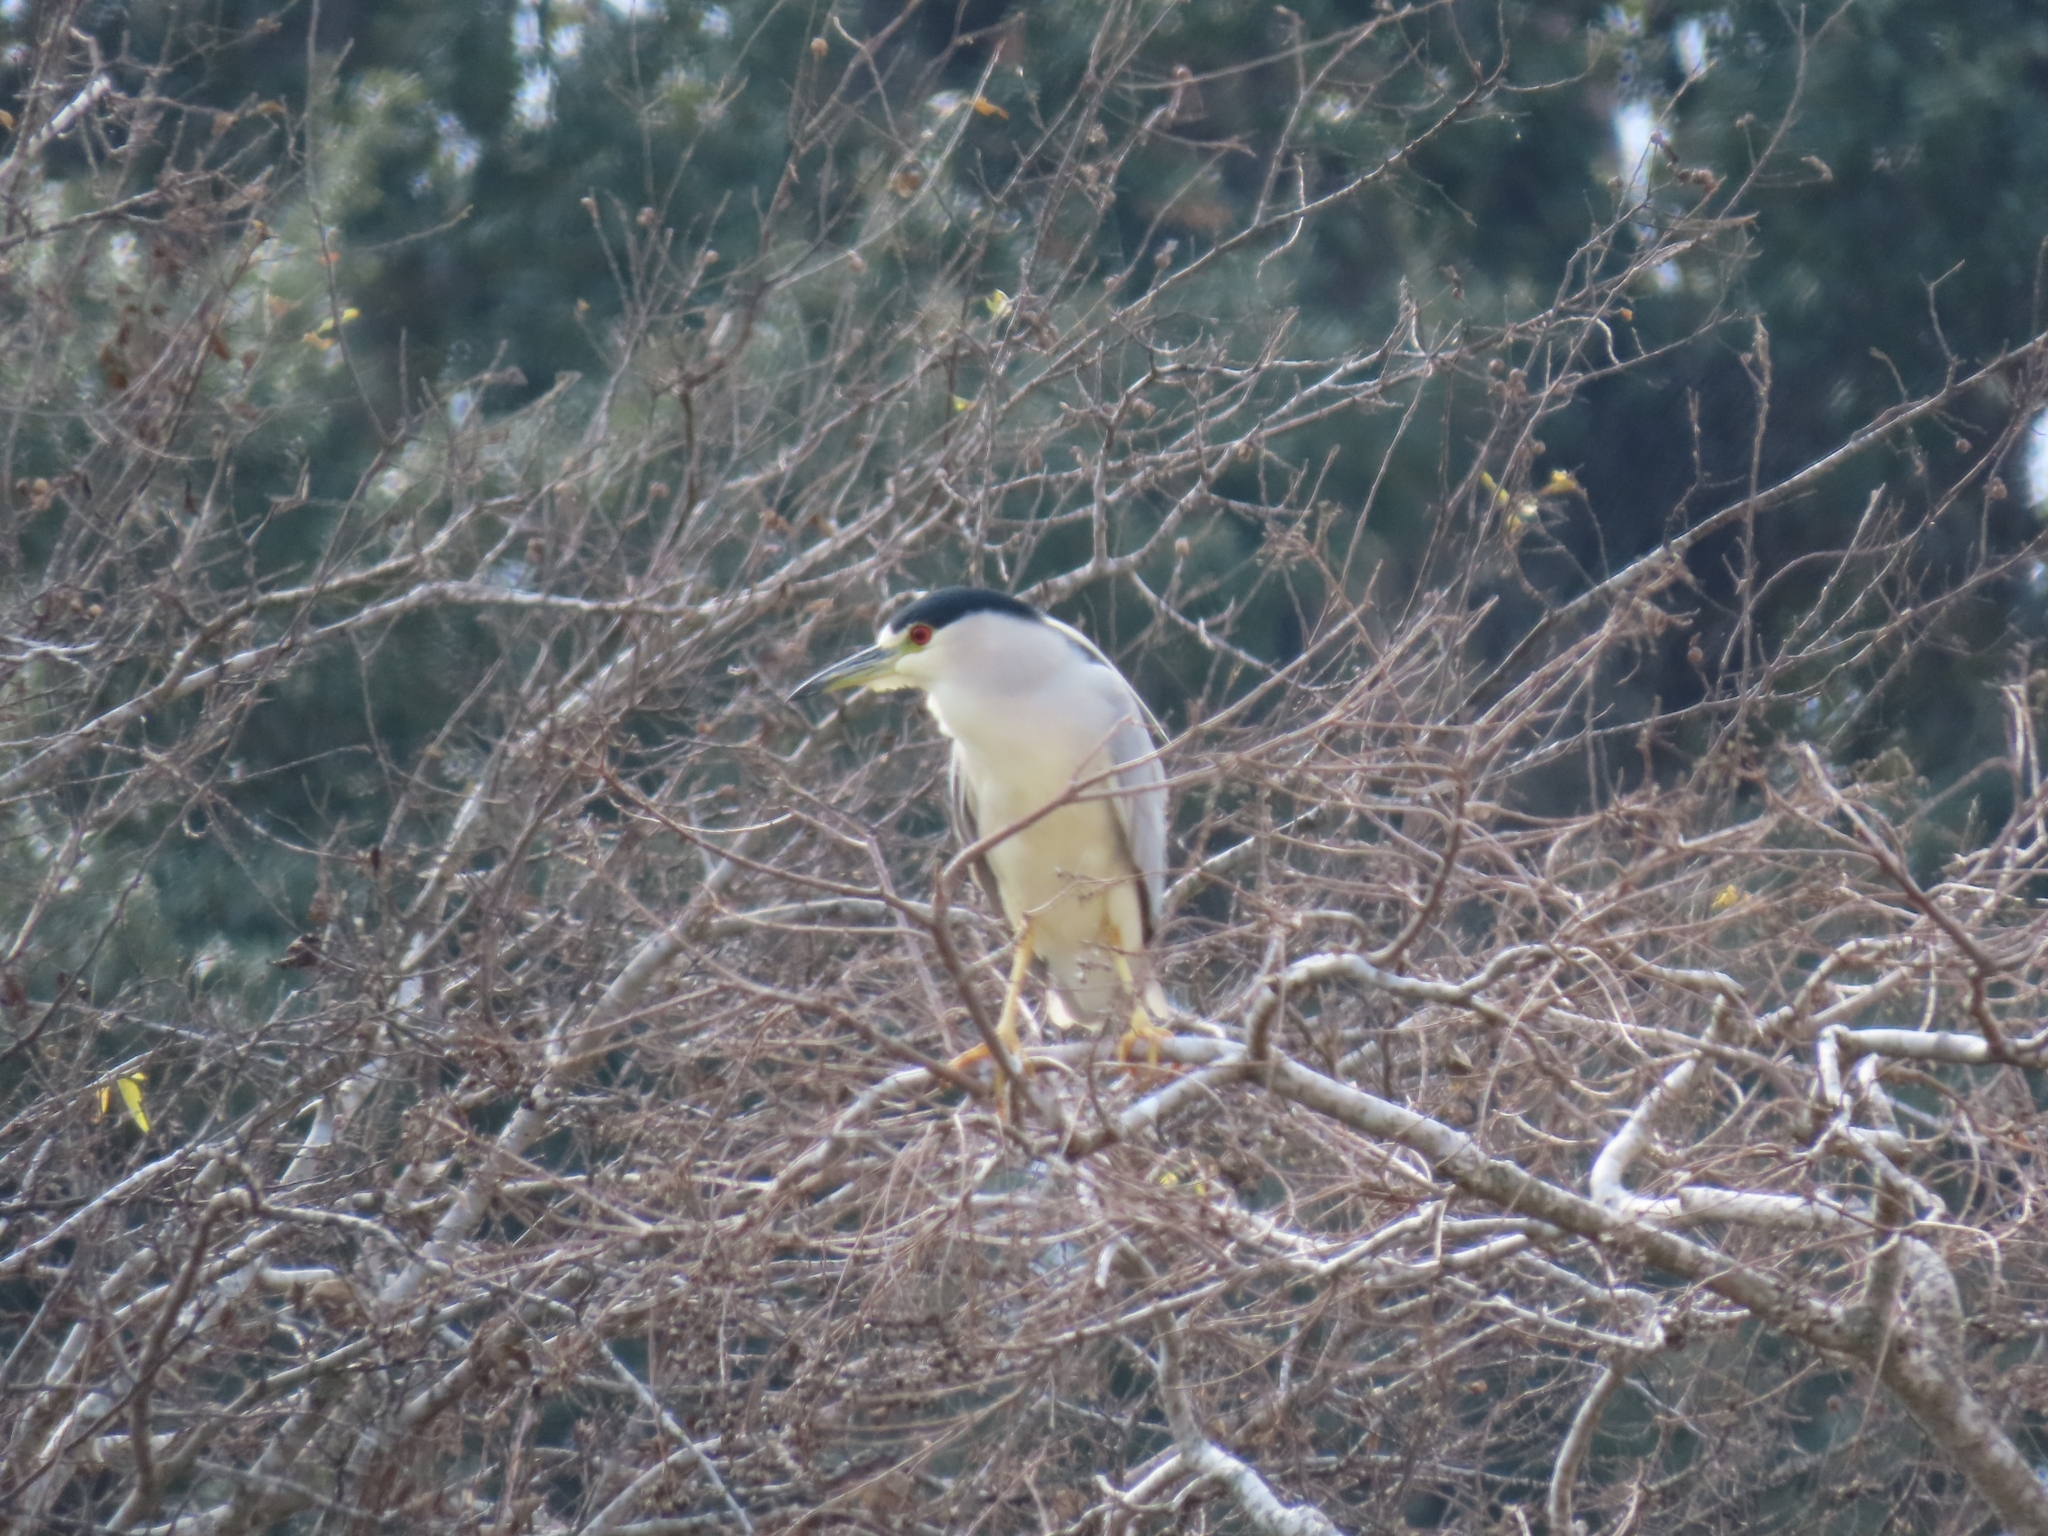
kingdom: Animalia
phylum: Chordata
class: Aves
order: Pelecaniformes
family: Ardeidae
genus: Nycticorax
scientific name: Nycticorax nycticorax
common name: Black-crowned night heron
